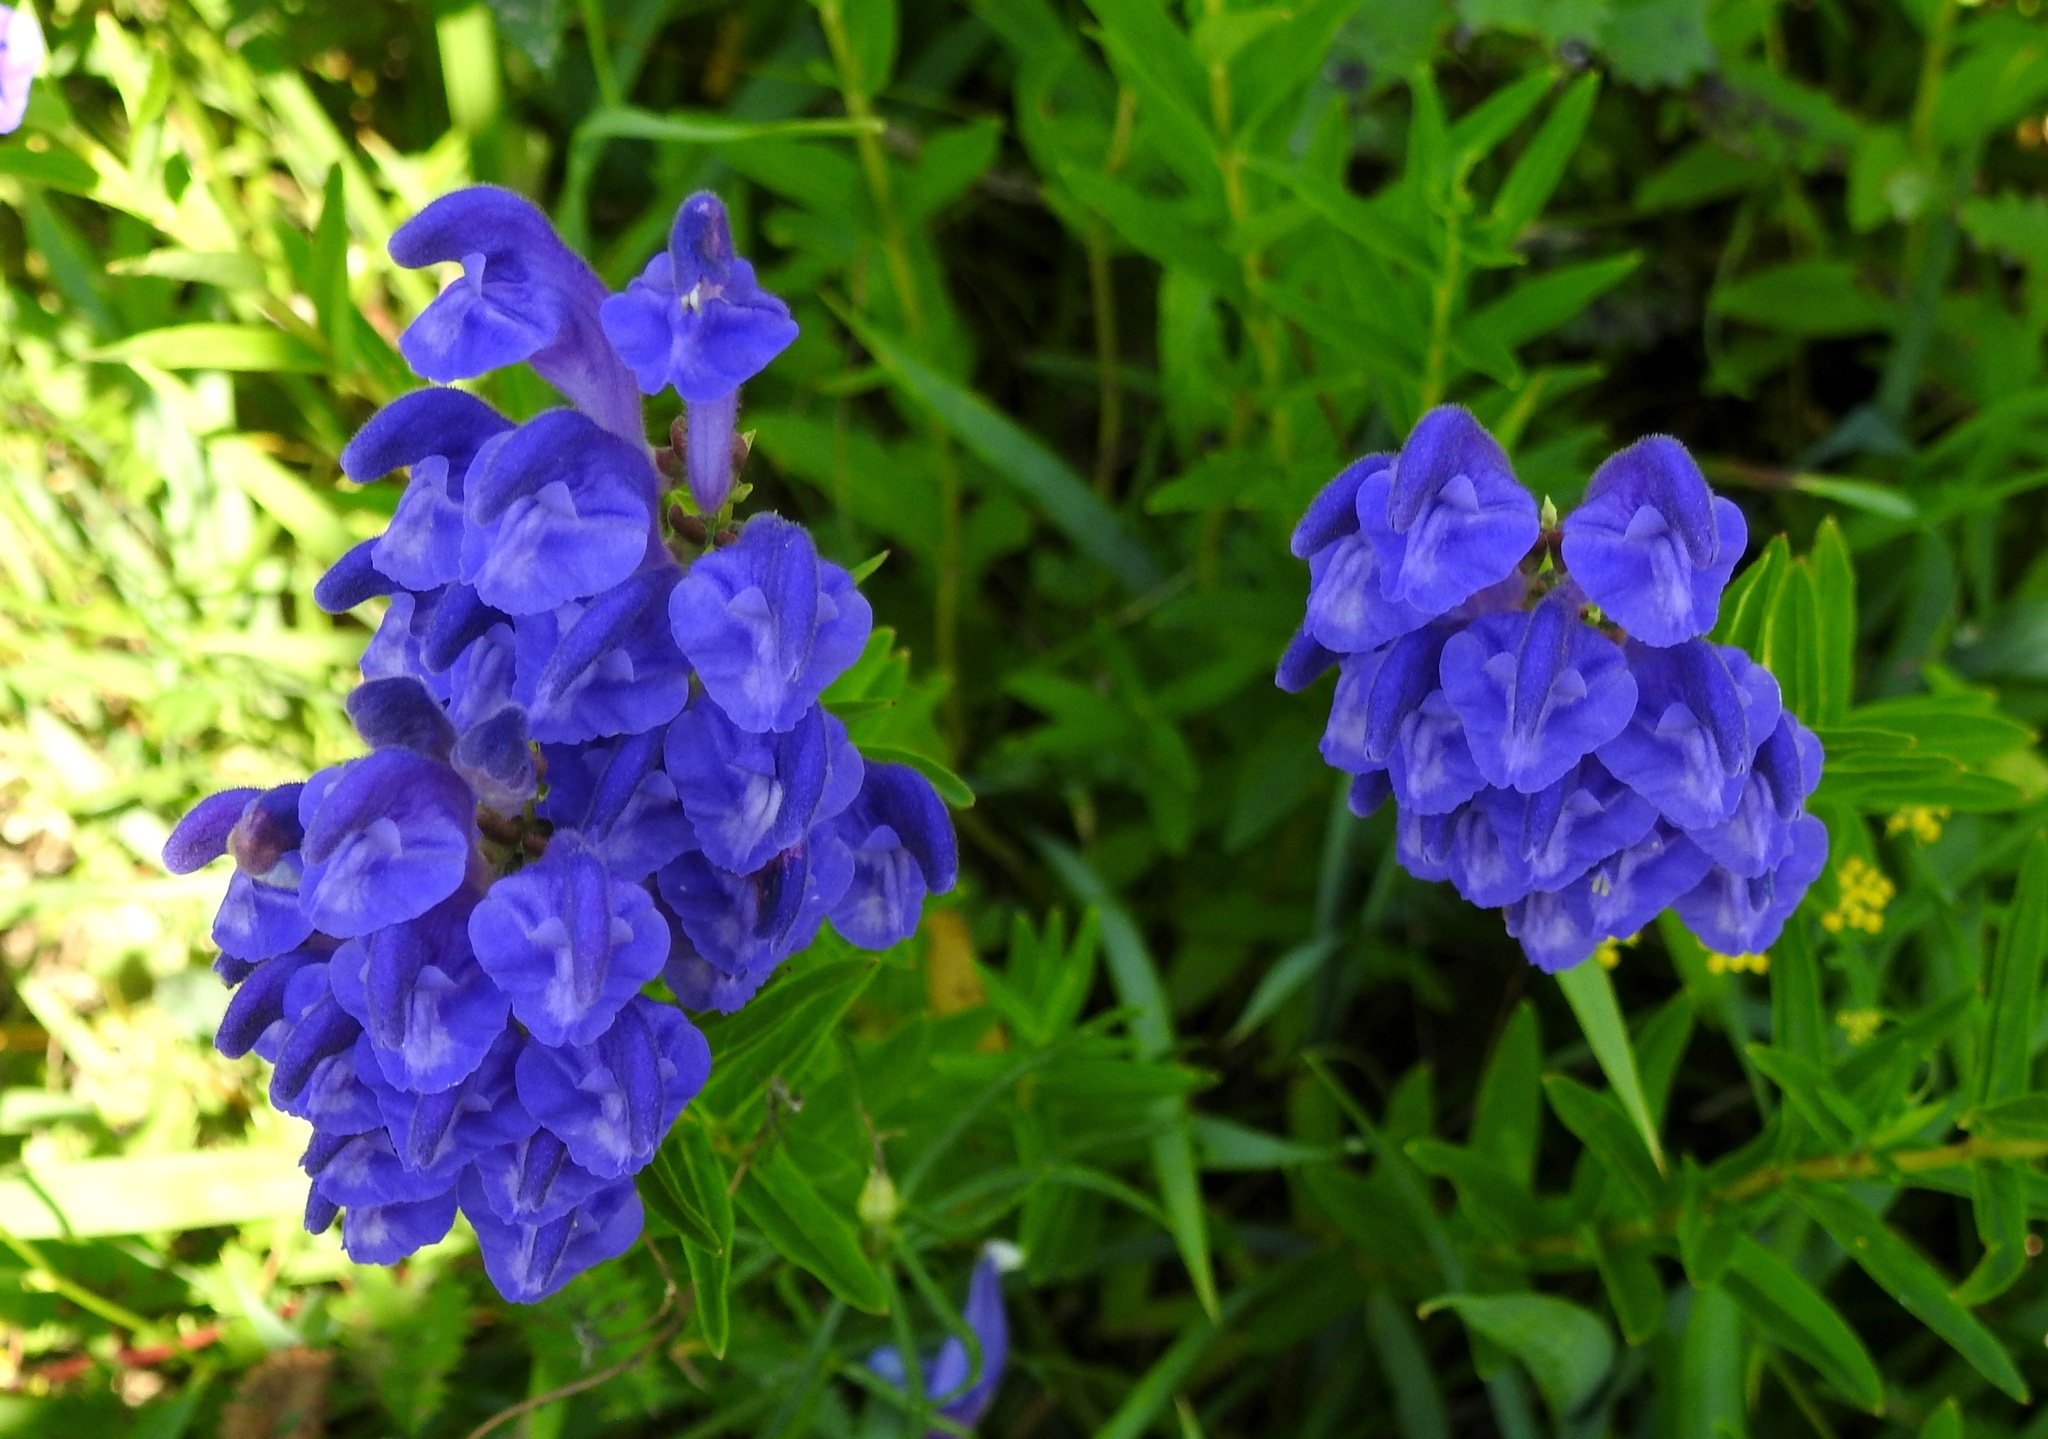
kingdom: Plantae
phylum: Tracheophyta
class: Magnoliopsida
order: Lamiales
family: Lamiaceae
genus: Scutellaria
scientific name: Scutellaria baicalensis
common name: Baikal skullcap
